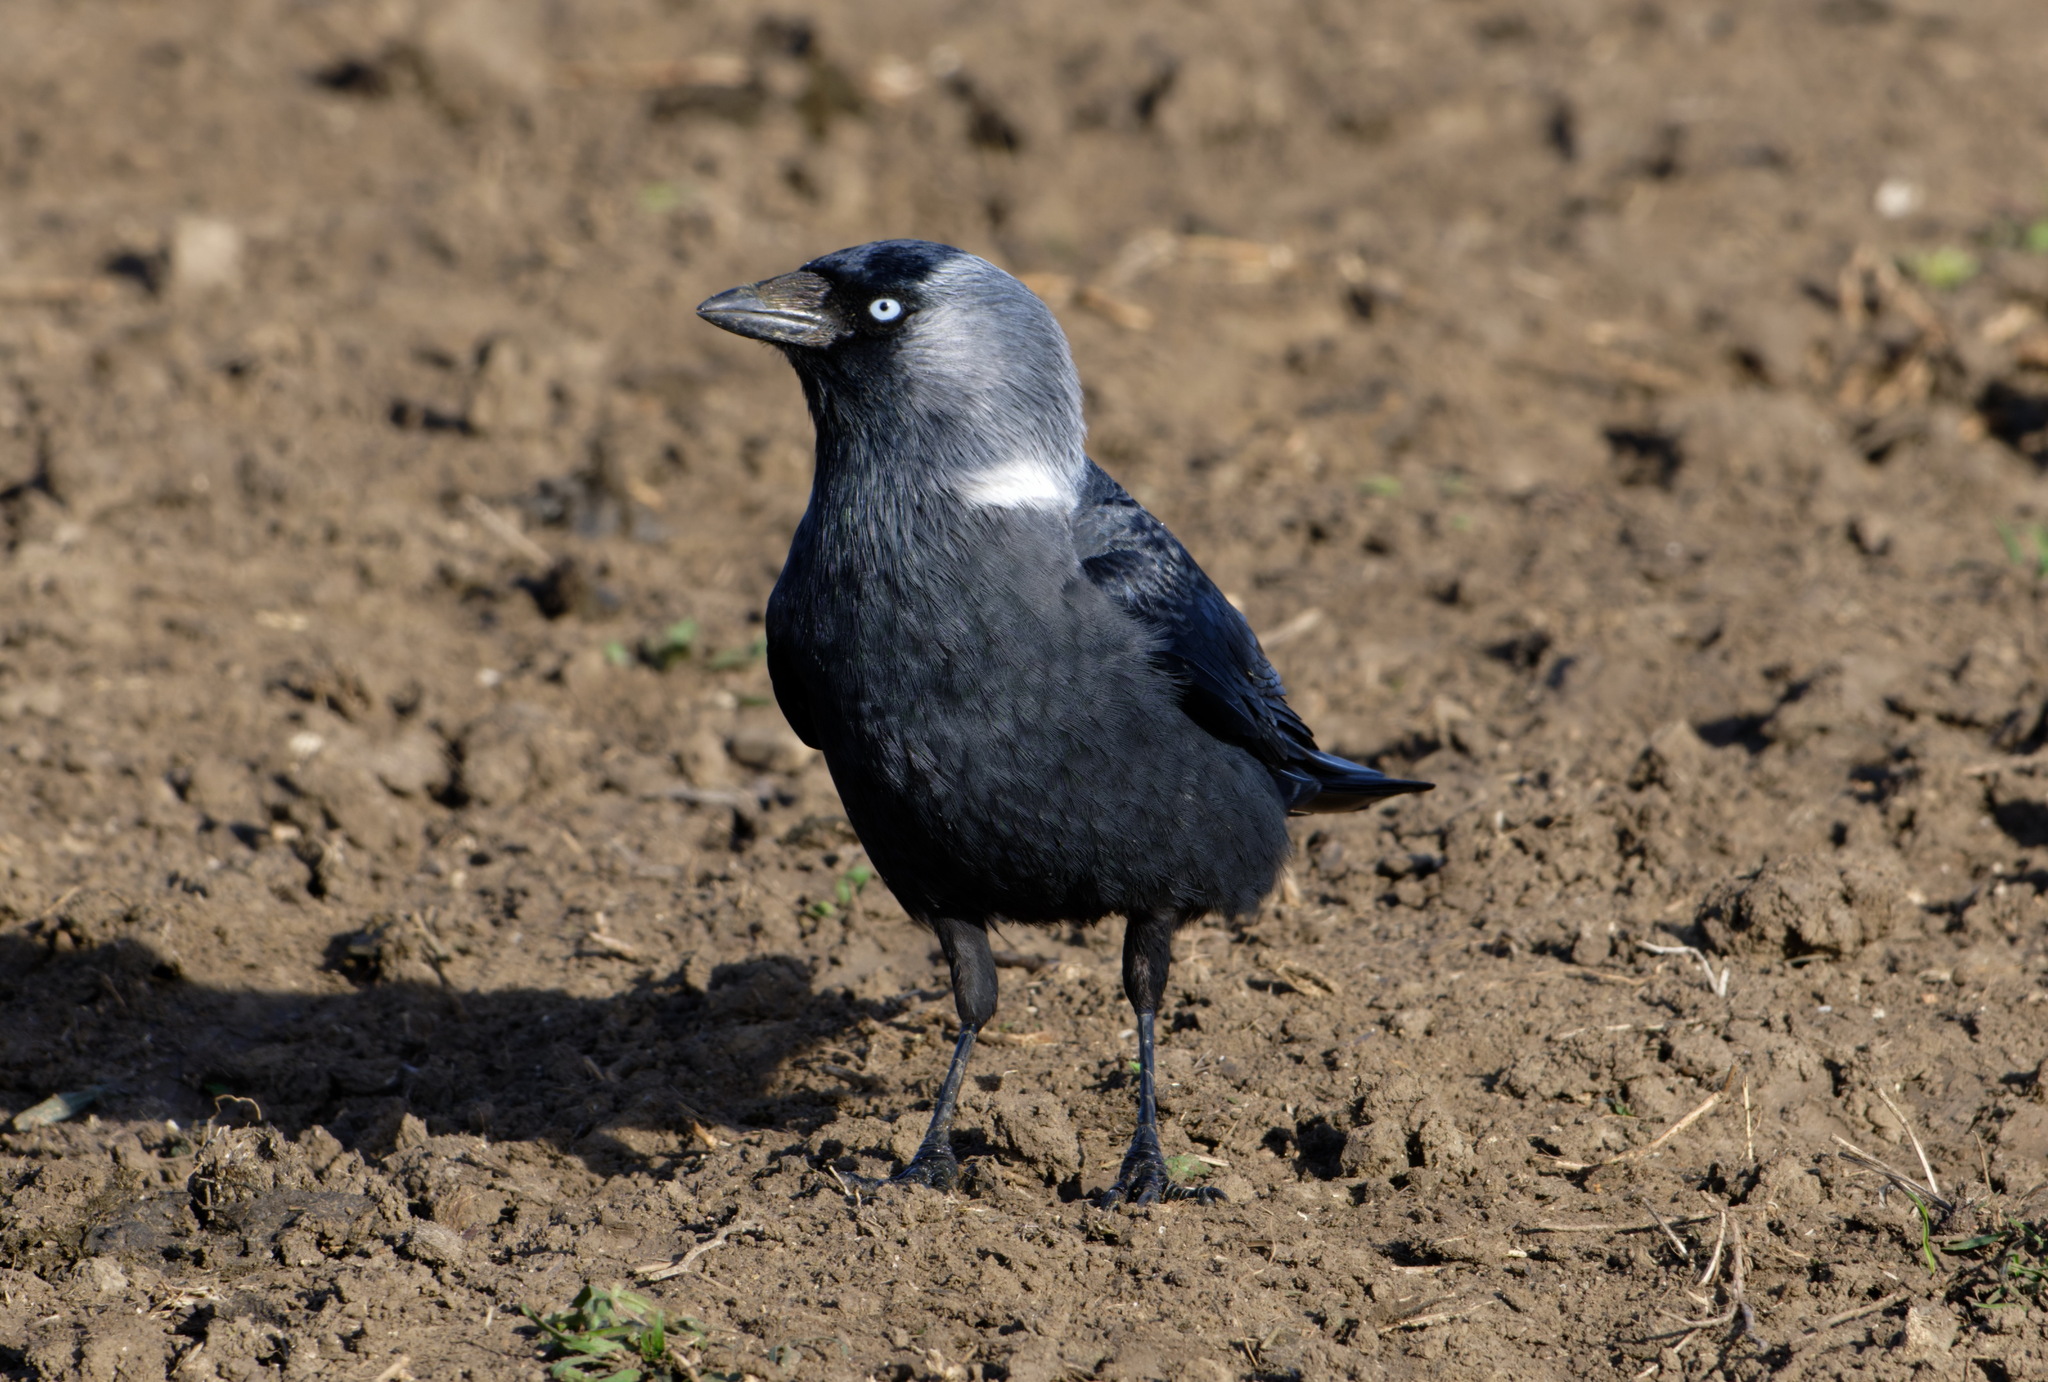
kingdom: Animalia
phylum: Chordata
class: Aves
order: Passeriformes
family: Corvidae
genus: Coloeus
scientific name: Coloeus monedula
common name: Western jackdaw
